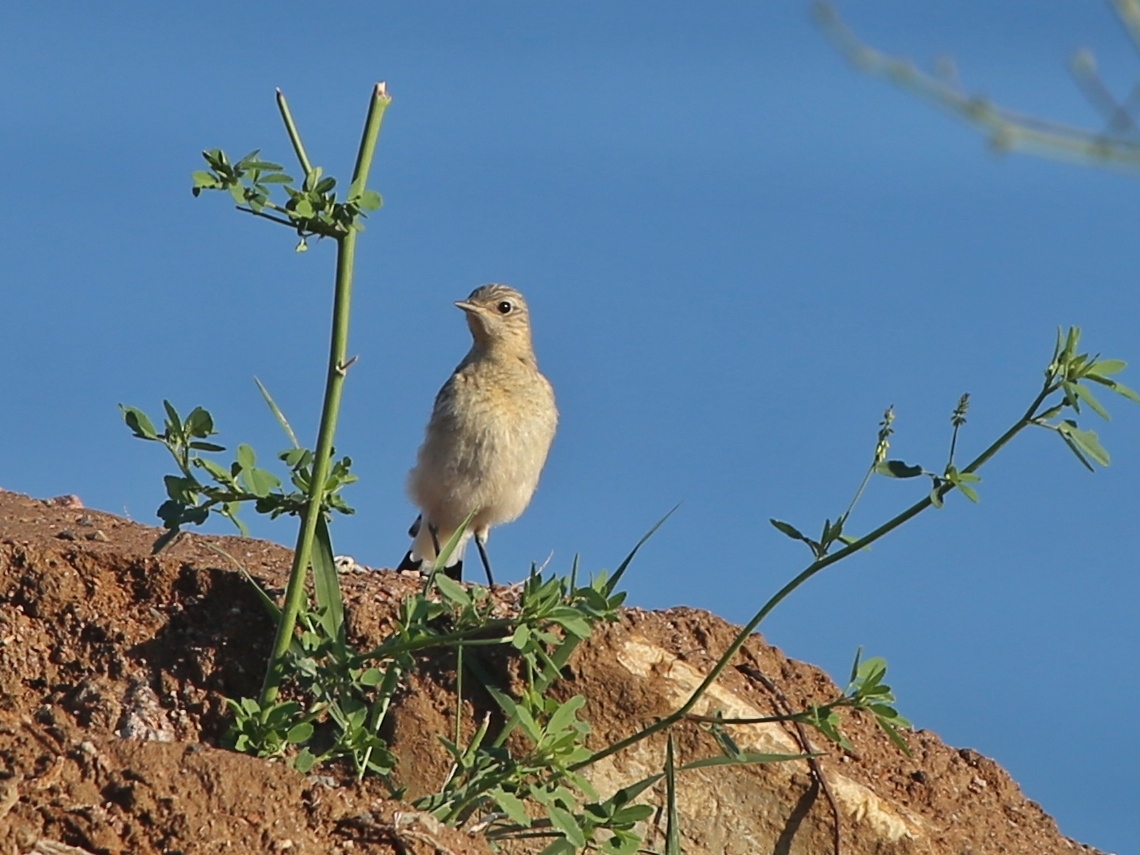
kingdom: Animalia
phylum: Chordata
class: Aves
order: Passeriformes
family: Muscicapidae
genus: Oenanthe
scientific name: Oenanthe oenanthe
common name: Northern wheatear
